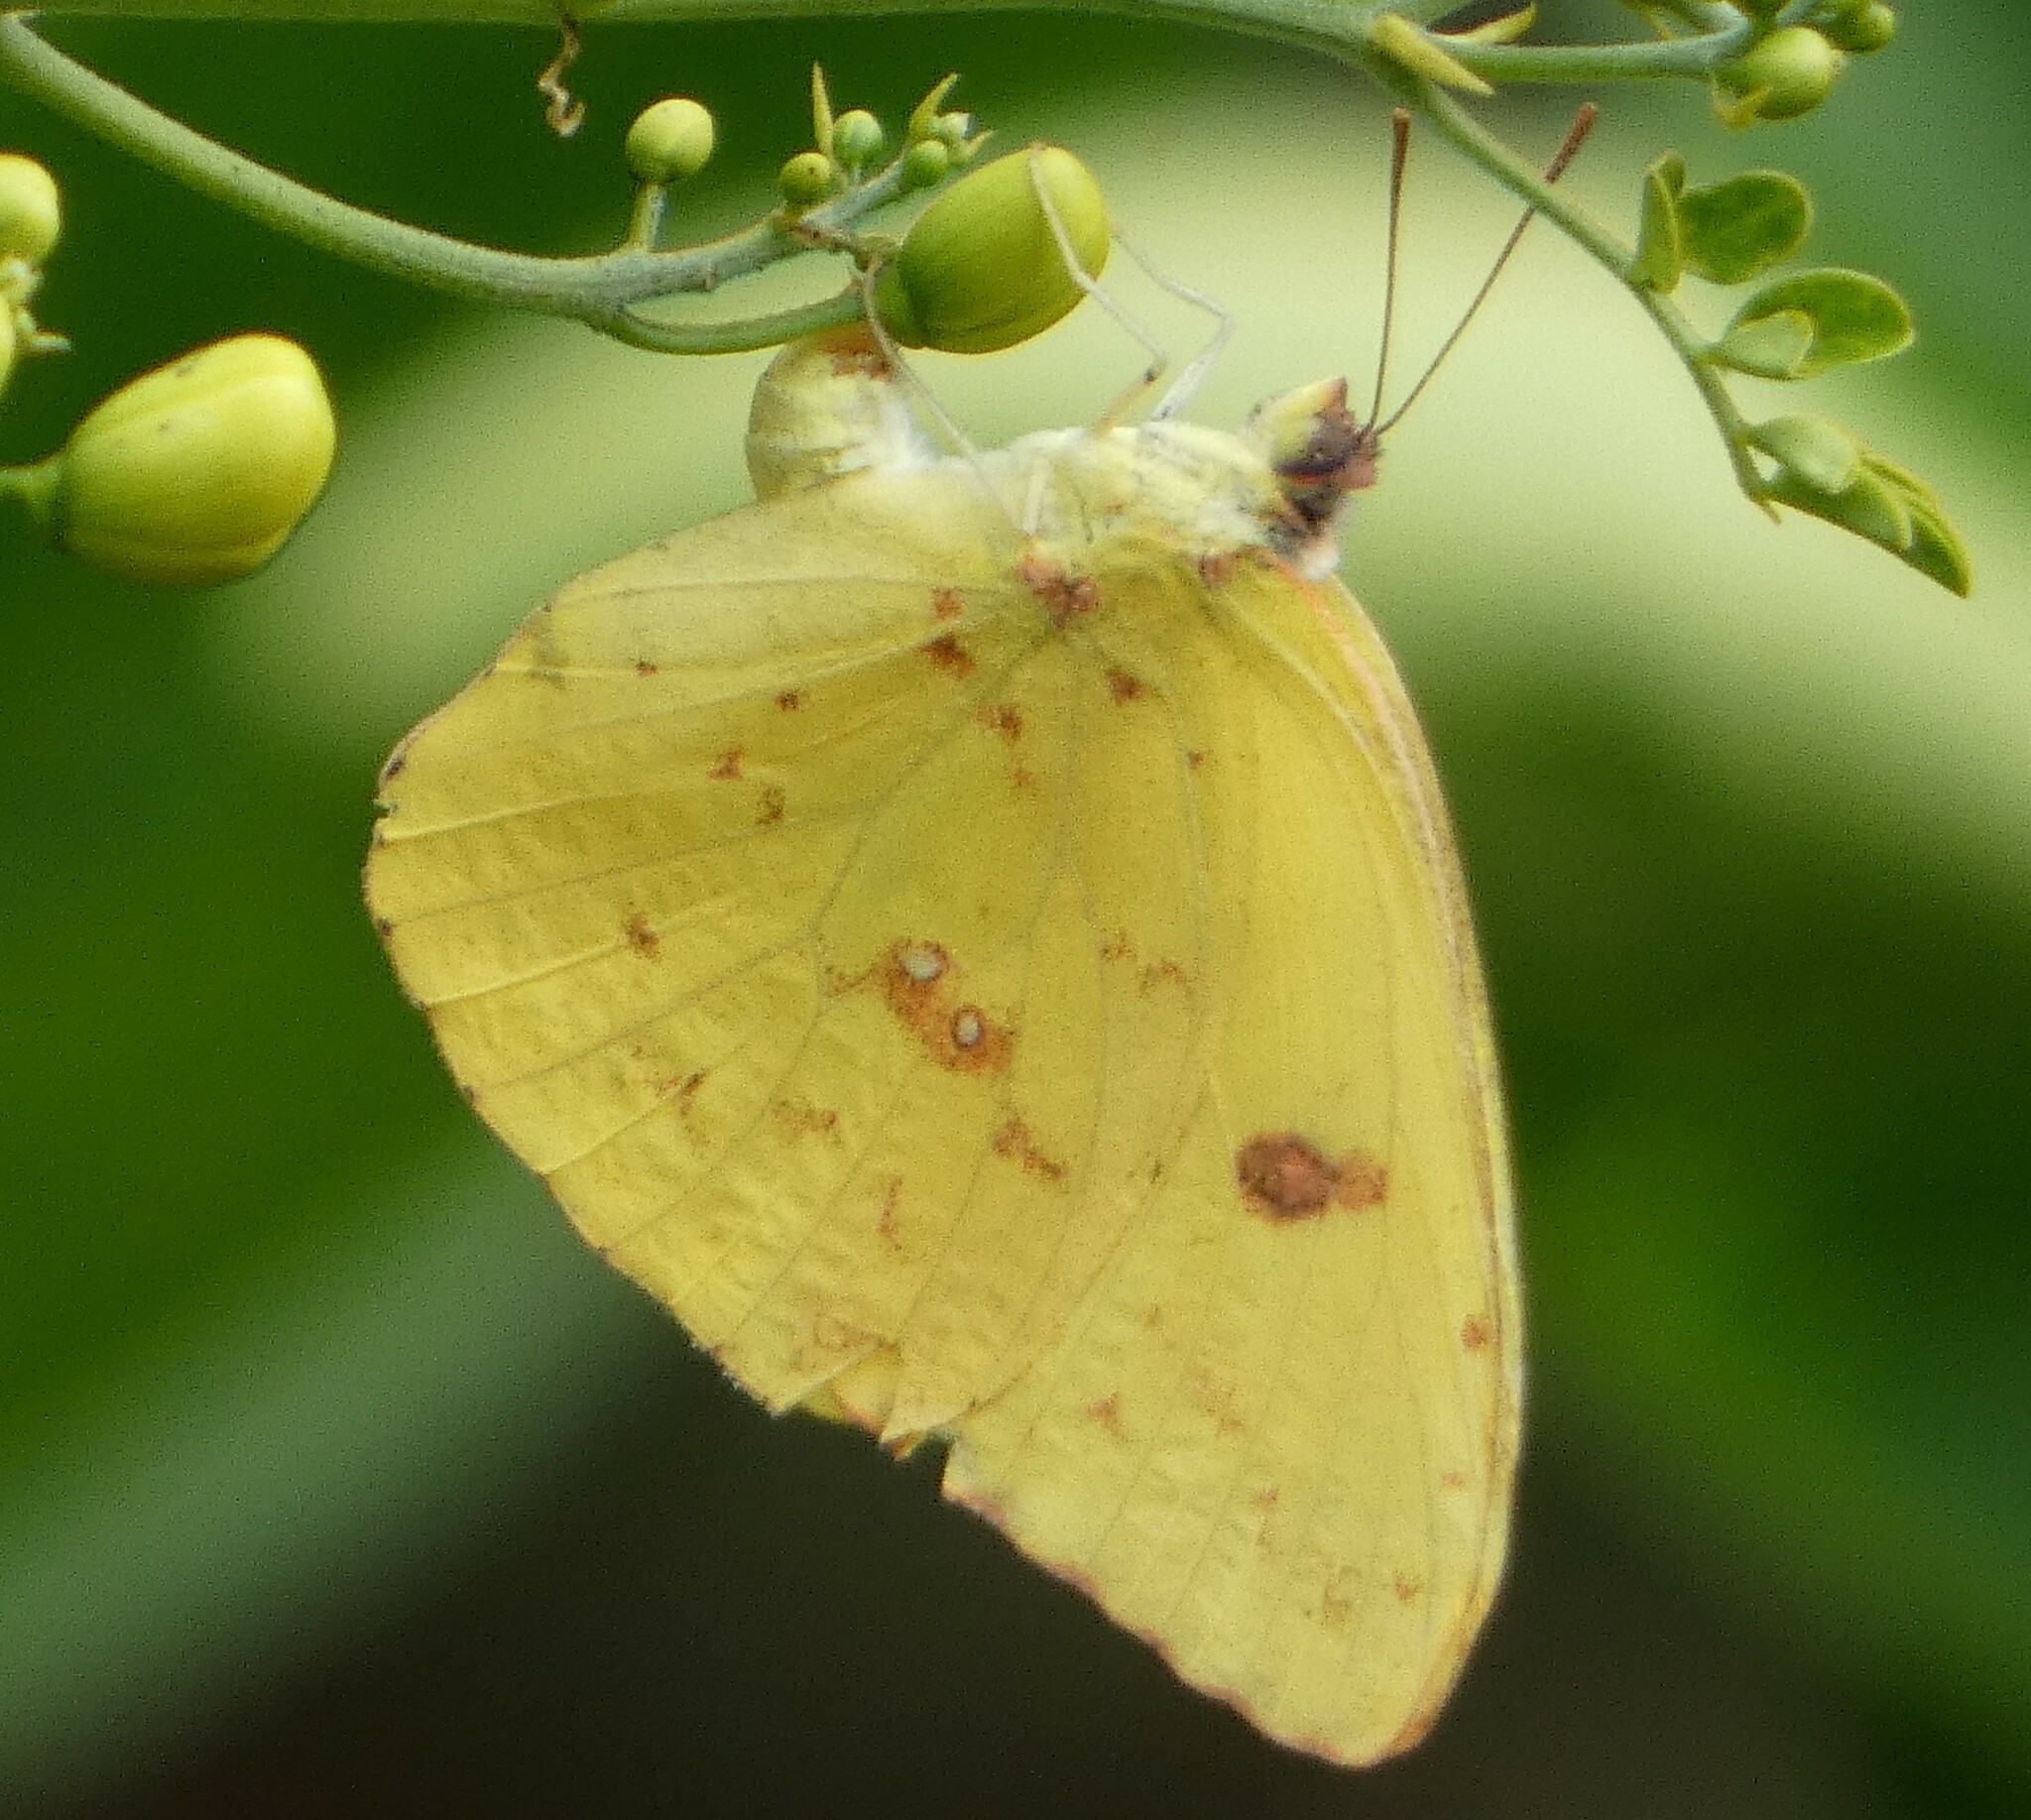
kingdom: Animalia
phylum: Arthropoda
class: Insecta
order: Lepidoptera
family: Pieridae
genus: Phoebis
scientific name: Phoebis sennae
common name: Cloudless sulphur
